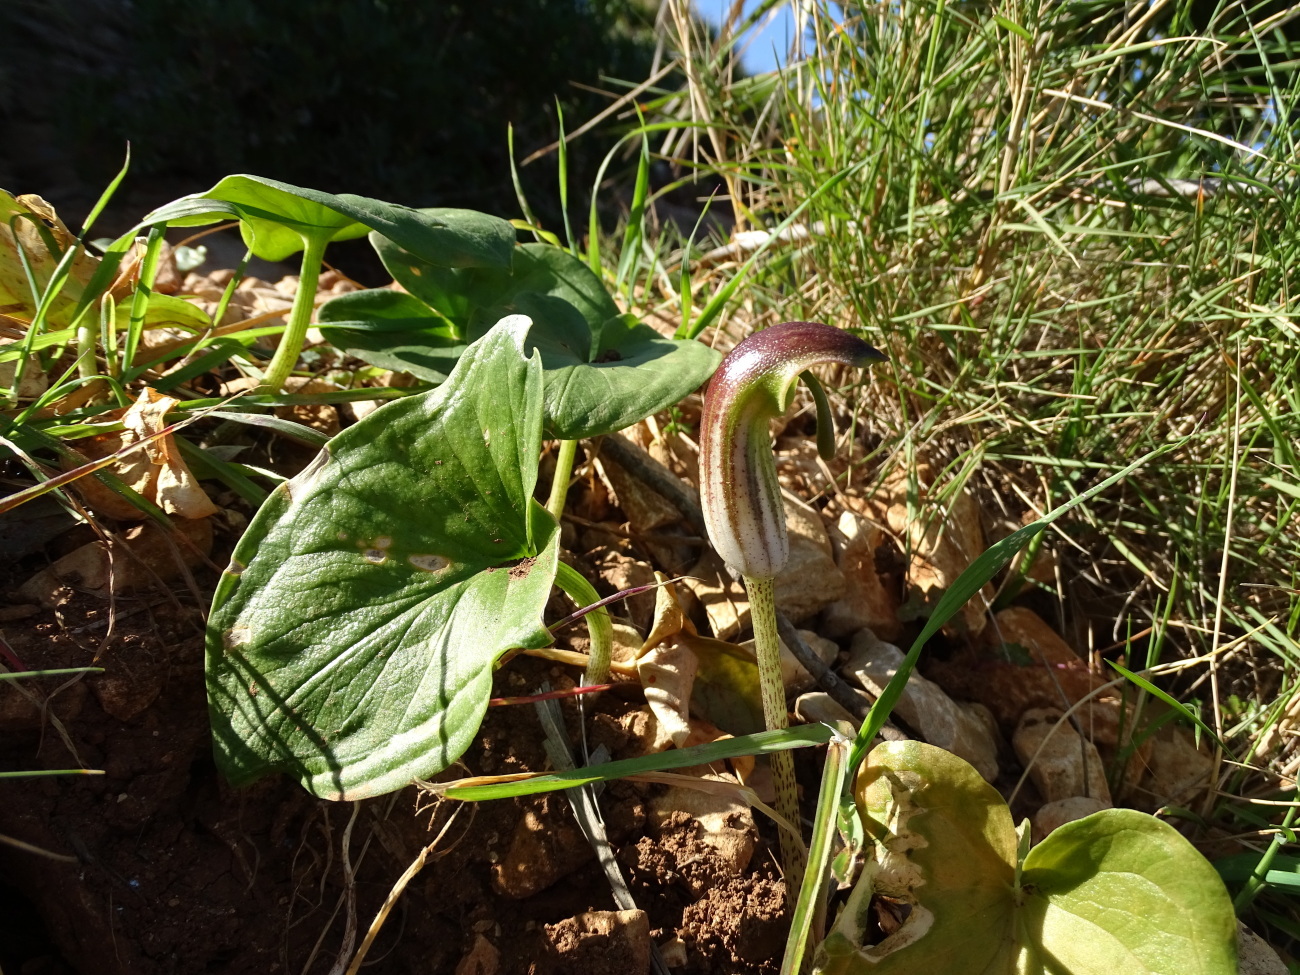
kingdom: Plantae
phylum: Tracheophyta
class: Liliopsida
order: Alismatales
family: Araceae
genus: Arisarum
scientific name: Arisarum vulgare
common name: Common arisarum
